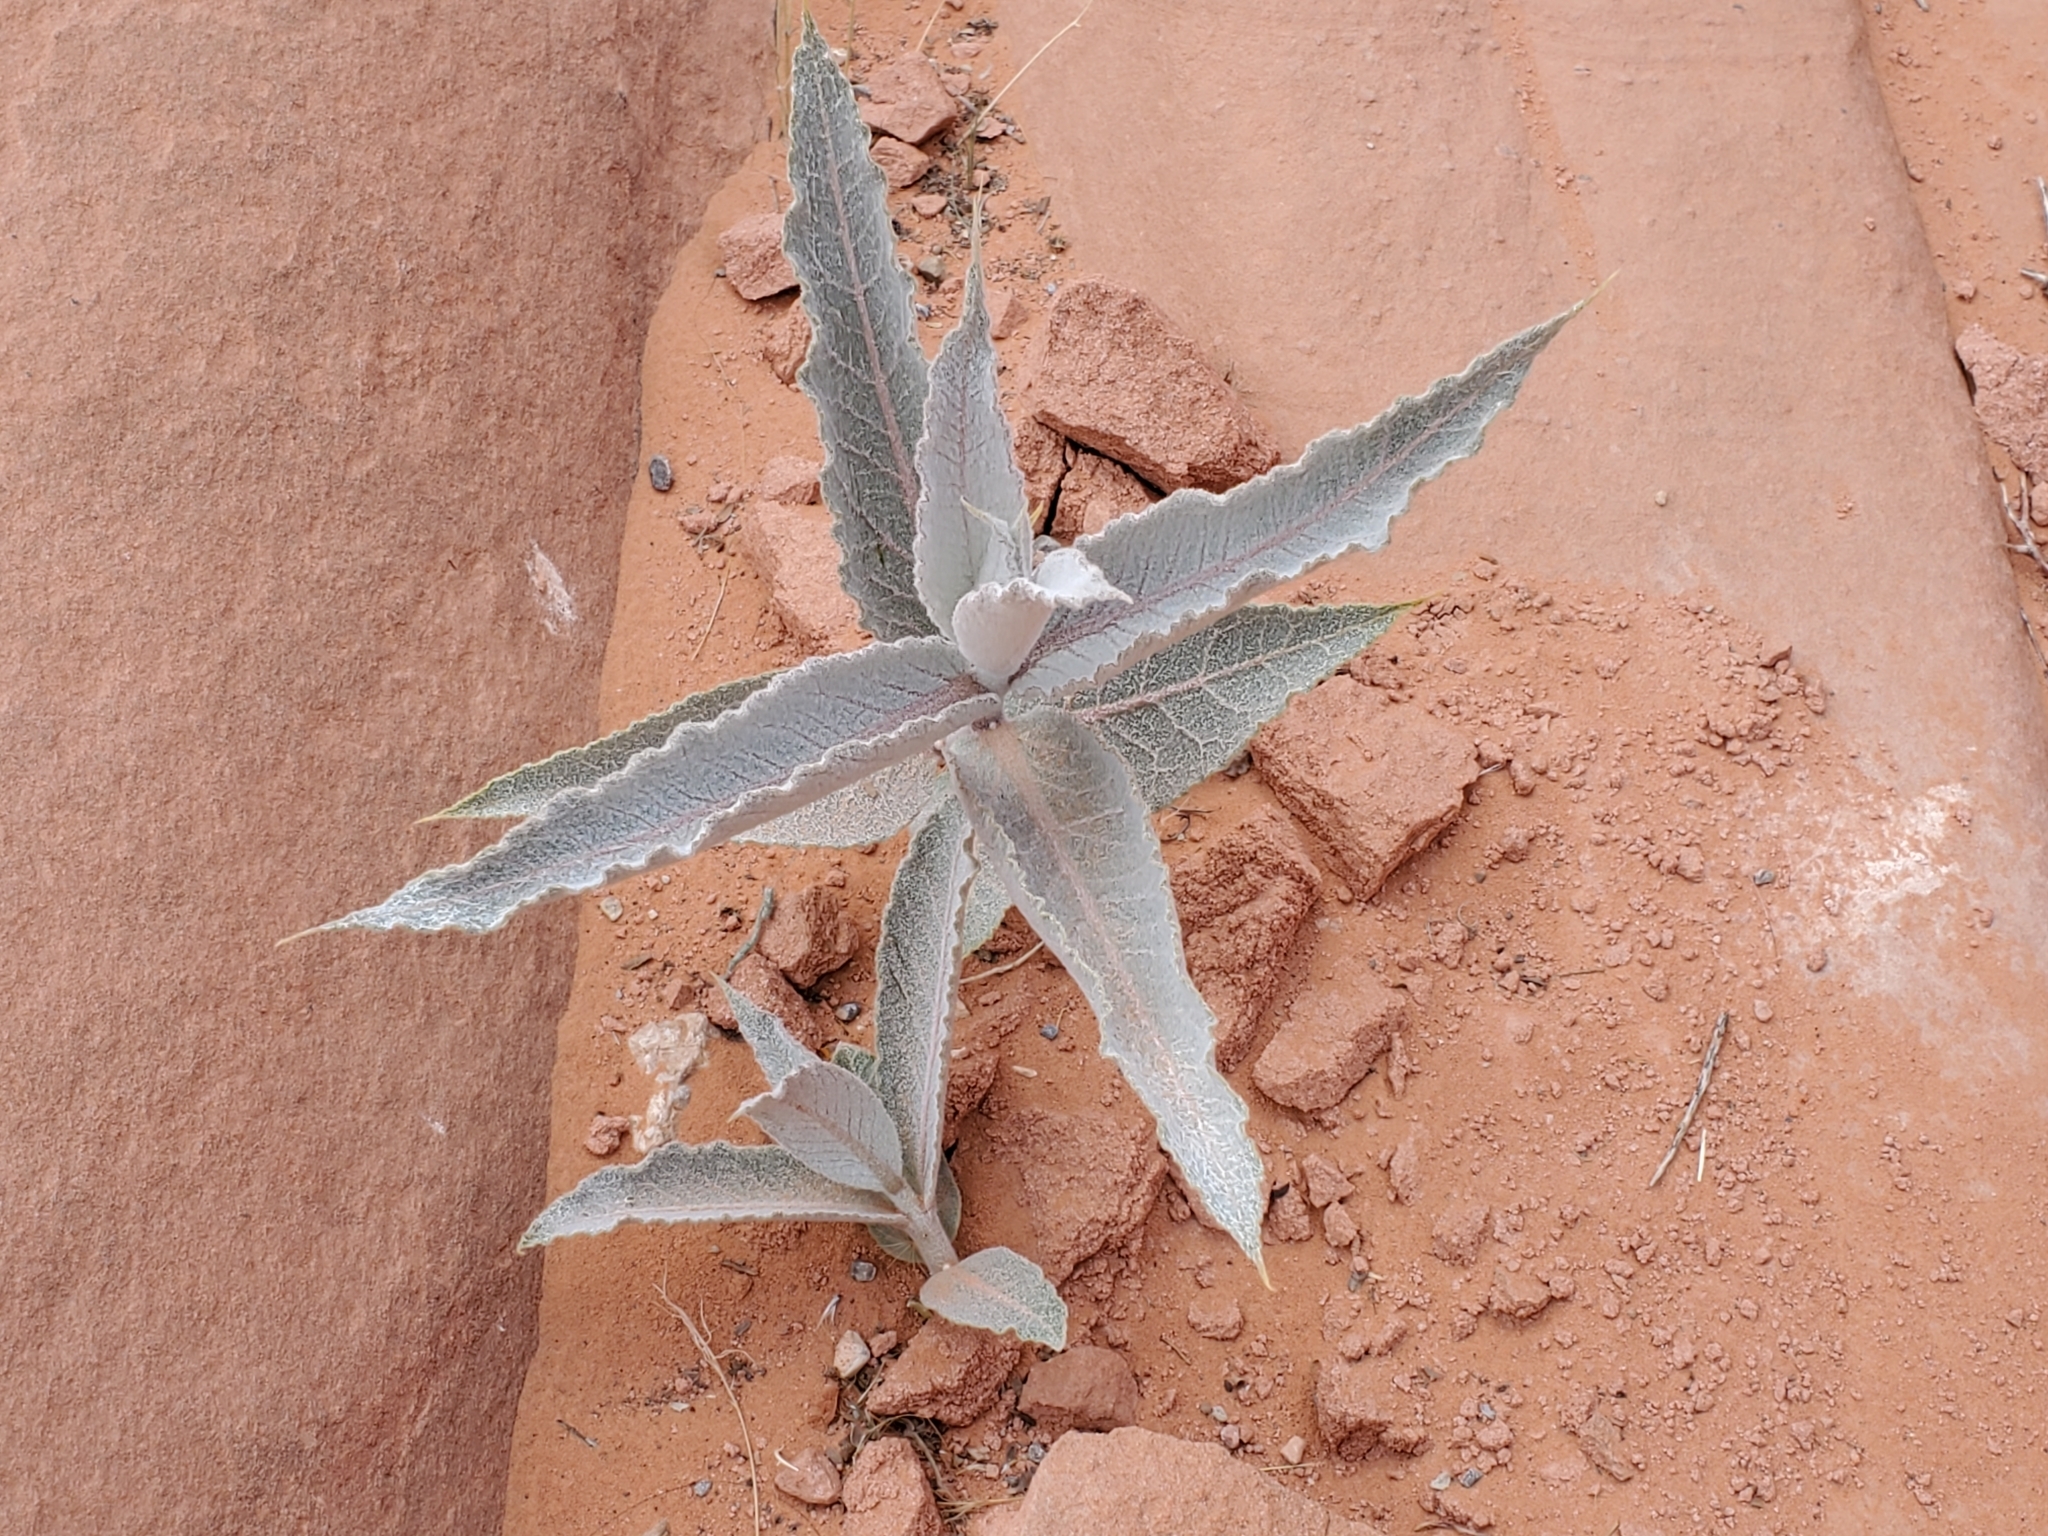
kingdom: Plantae
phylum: Tracheophyta
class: Magnoliopsida
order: Gentianales
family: Apocynaceae
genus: Asclepias
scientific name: Asclepias erosa
